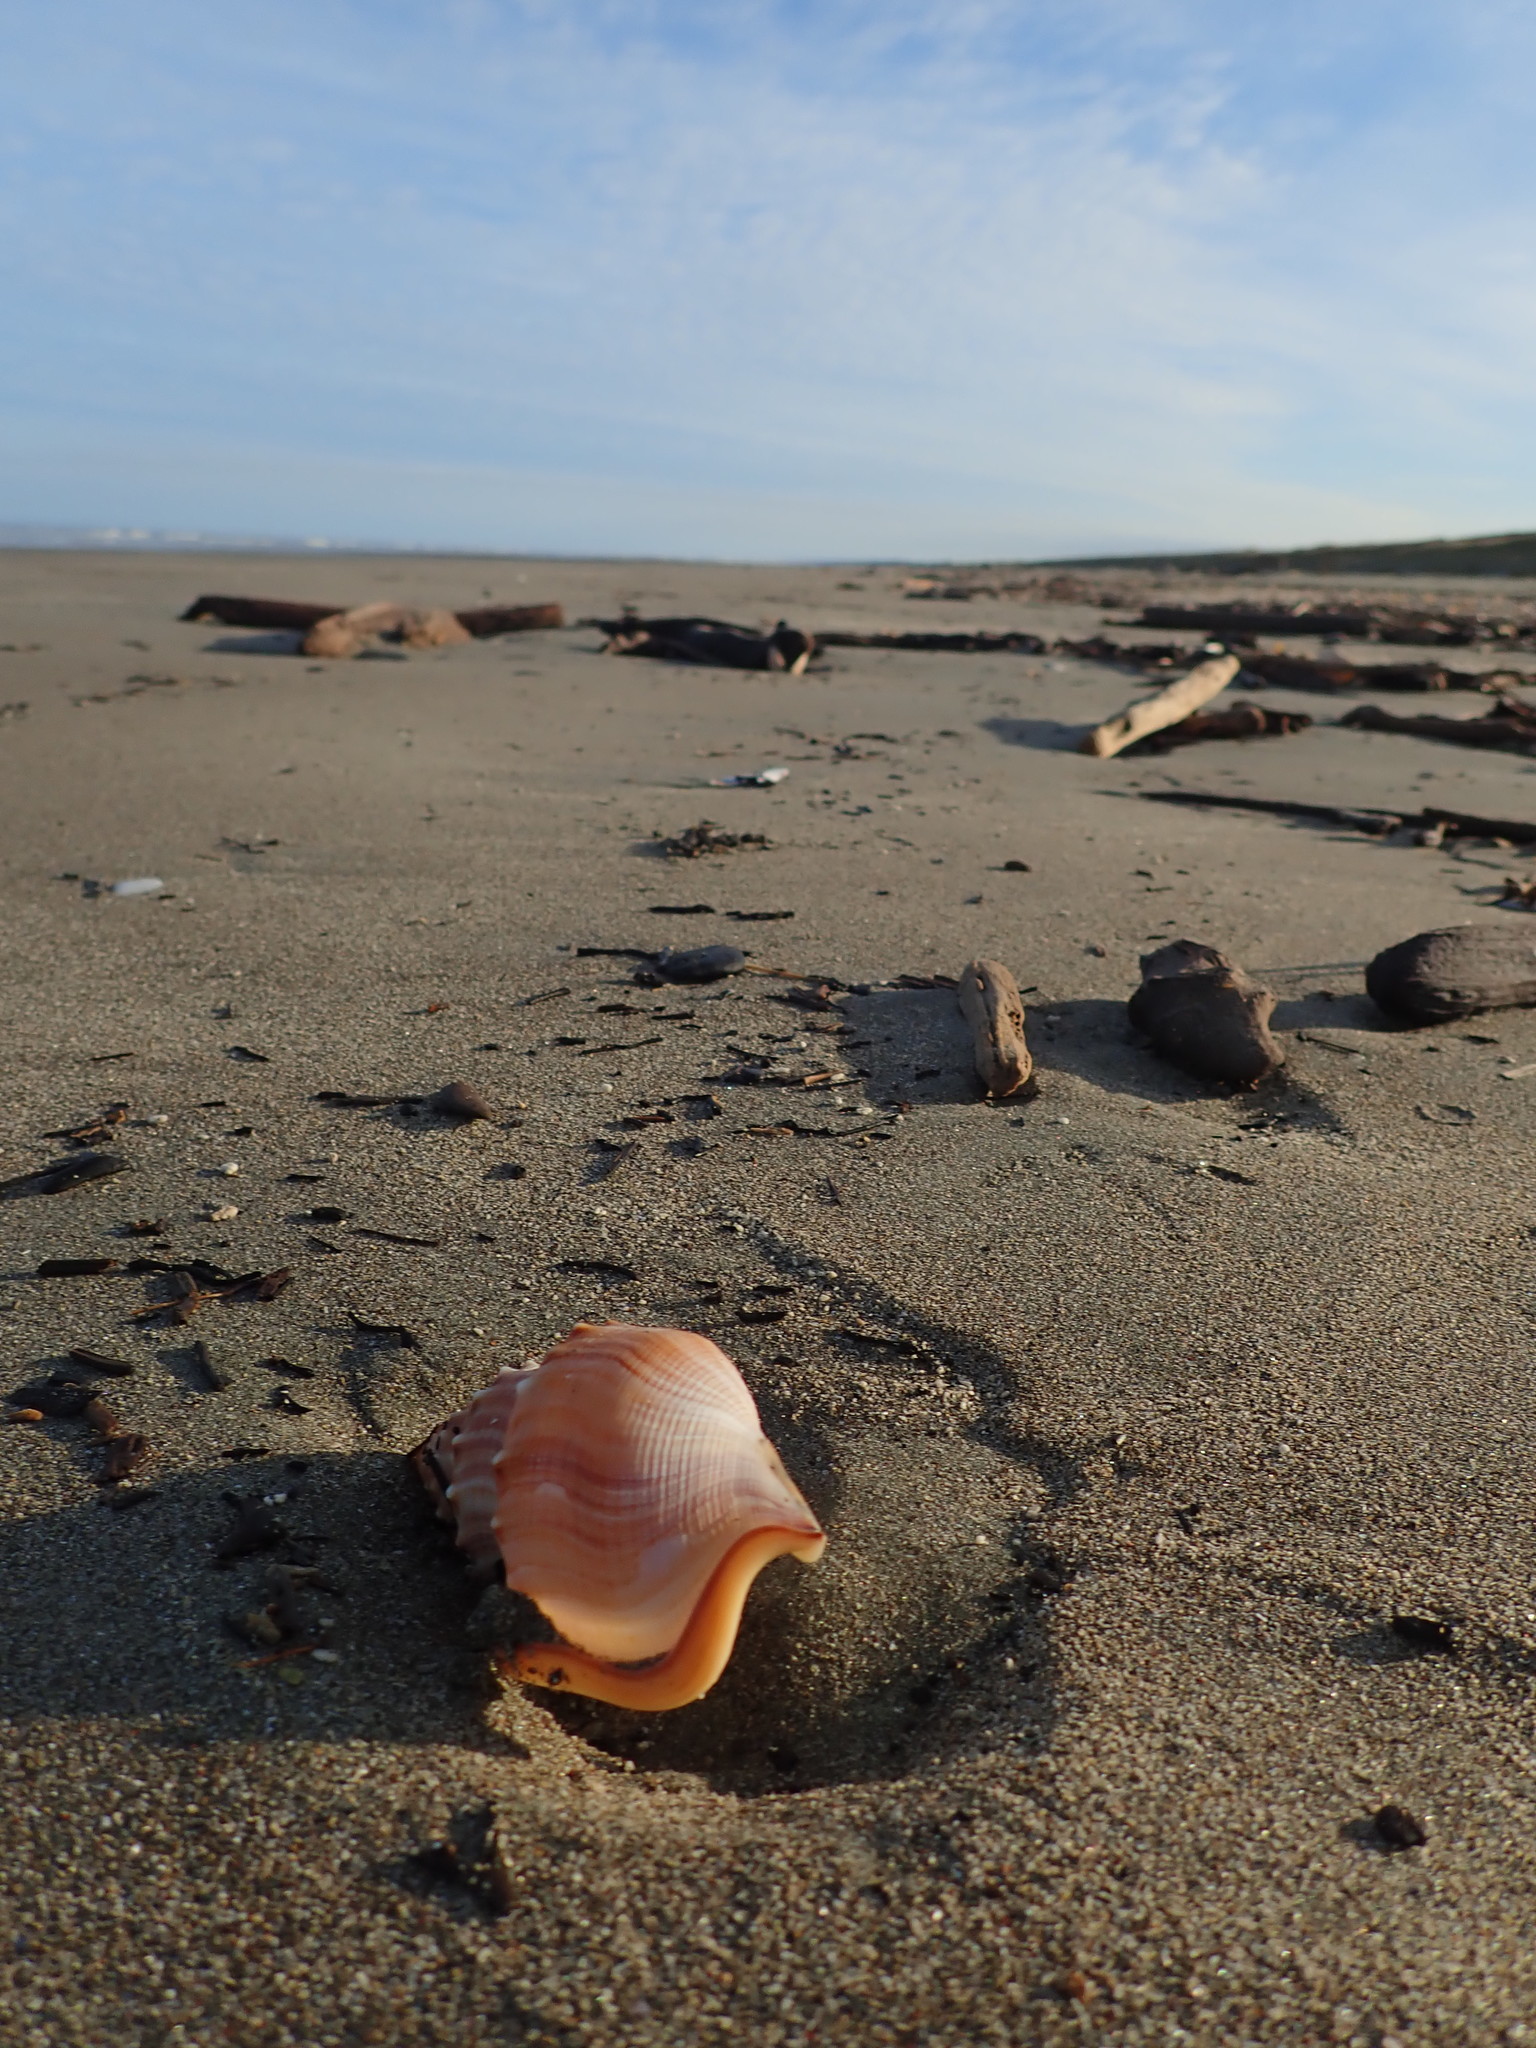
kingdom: Animalia
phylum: Mollusca
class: Gastropoda
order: Littorinimorpha
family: Struthiolariidae
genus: Struthiolaria
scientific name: Struthiolaria papulosa
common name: Large ostrich foot
